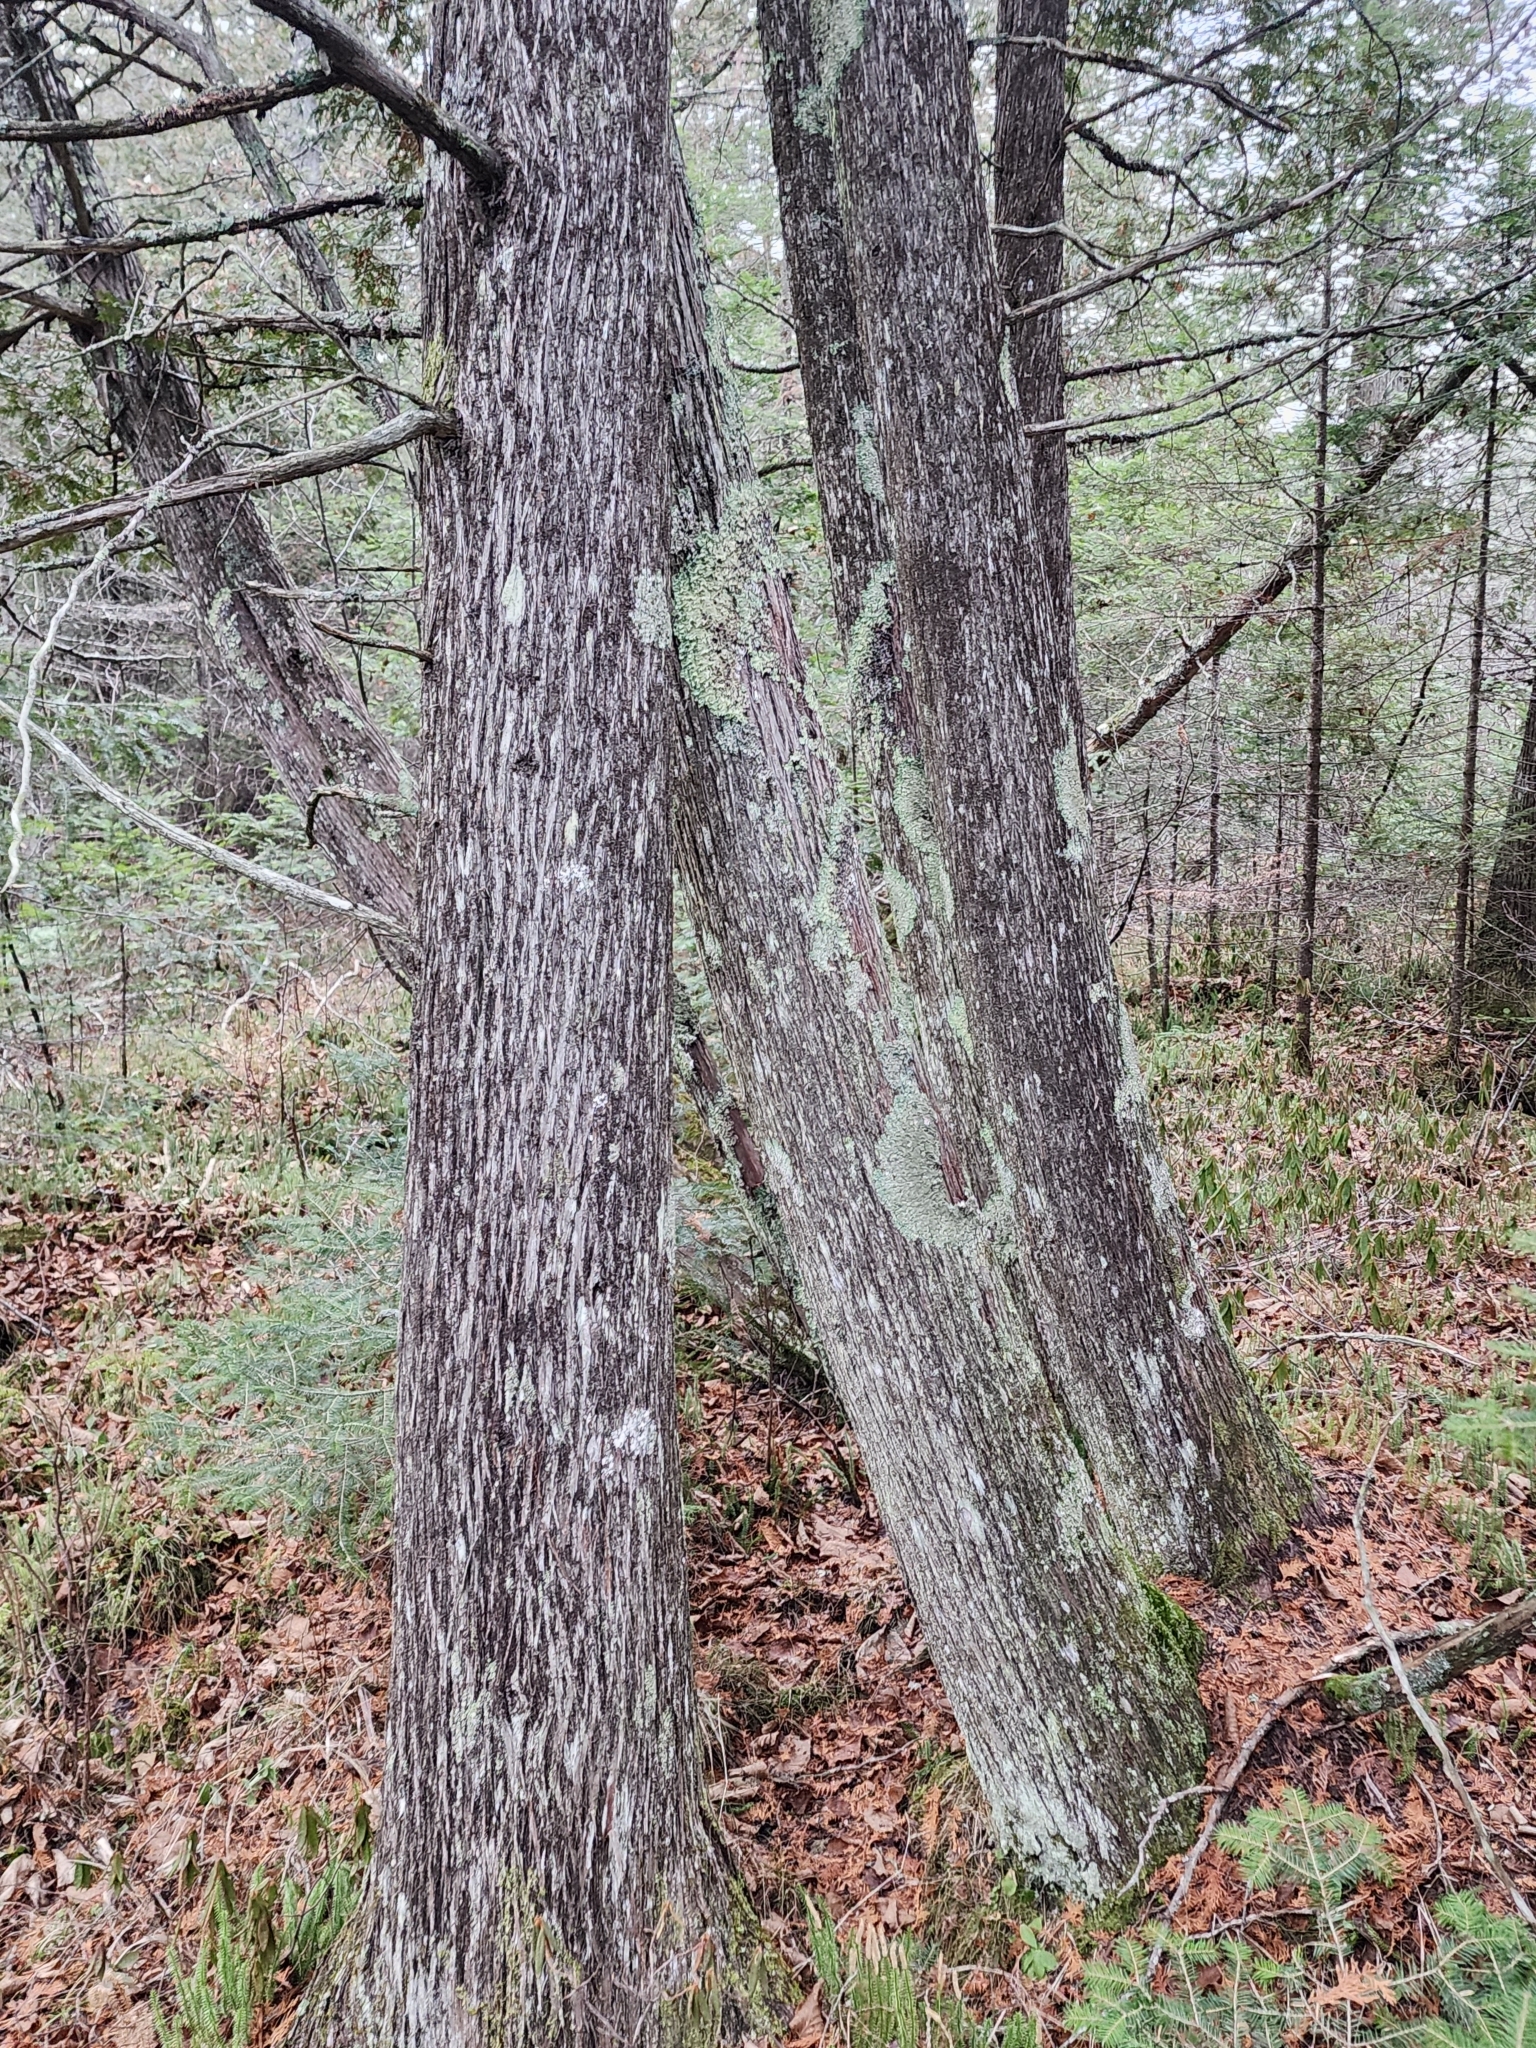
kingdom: Plantae
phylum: Tracheophyta
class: Pinopsida
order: Pinales
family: Cupressaceae
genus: Thuja
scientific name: Thuja occidentalis
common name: Northern white-cedar
